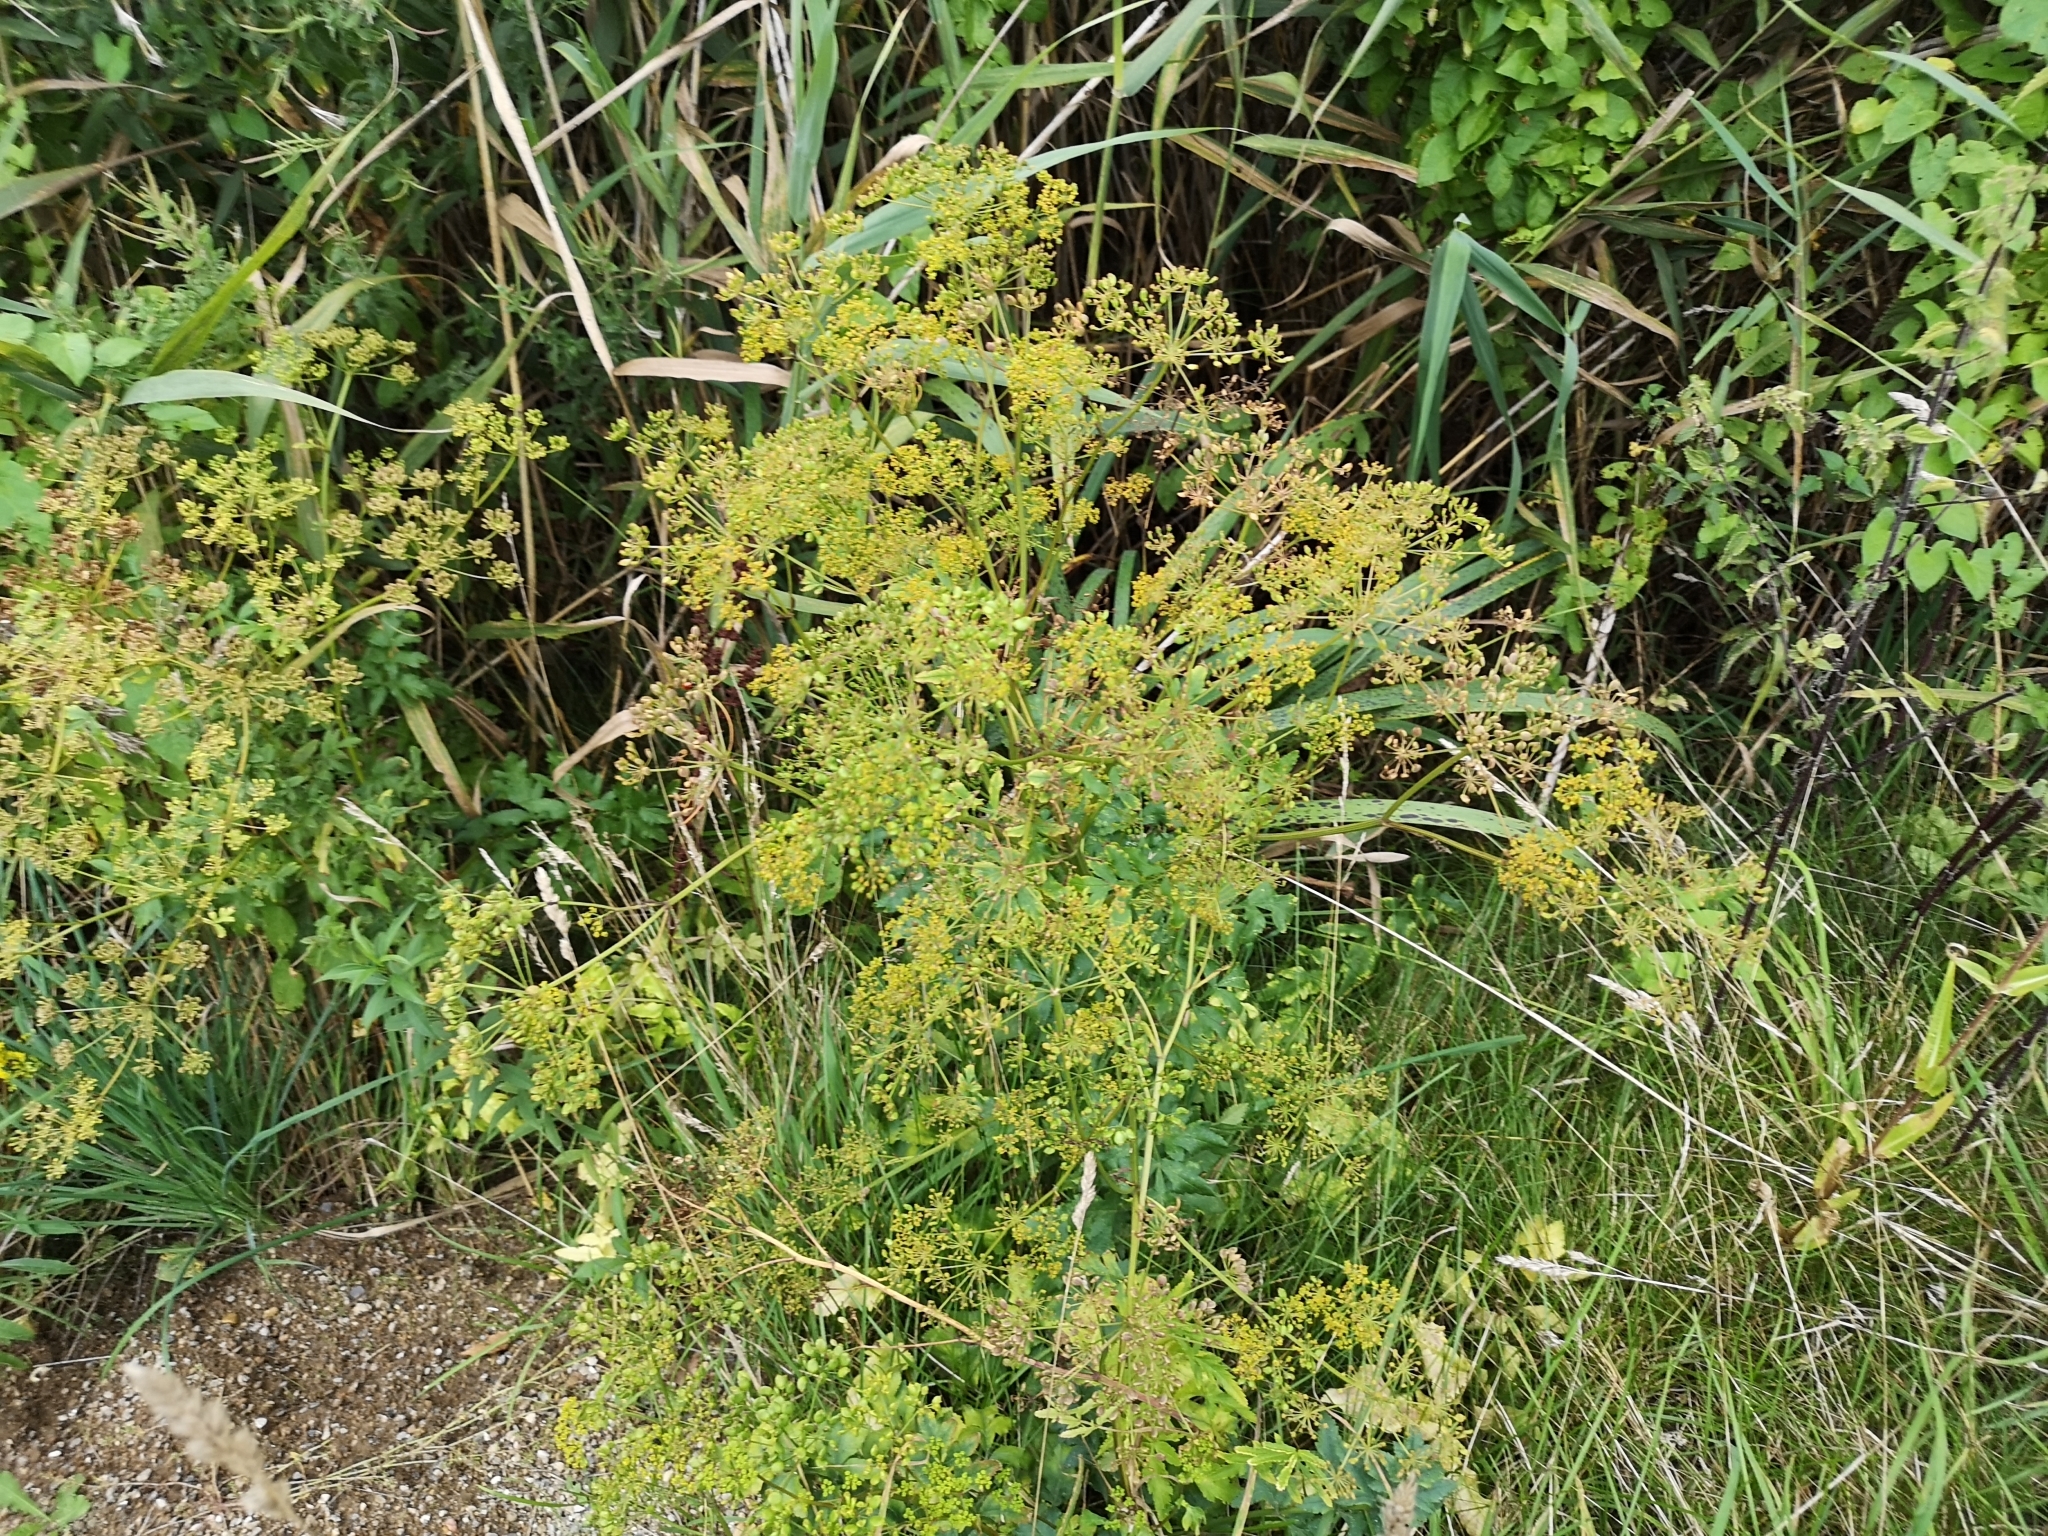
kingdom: Plantae
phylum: Tracheophyta
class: Magnoliopsida
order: Apiales
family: Apiaceae
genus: Pastinaca
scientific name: Pastinaca sativa
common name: Wild parsnip
